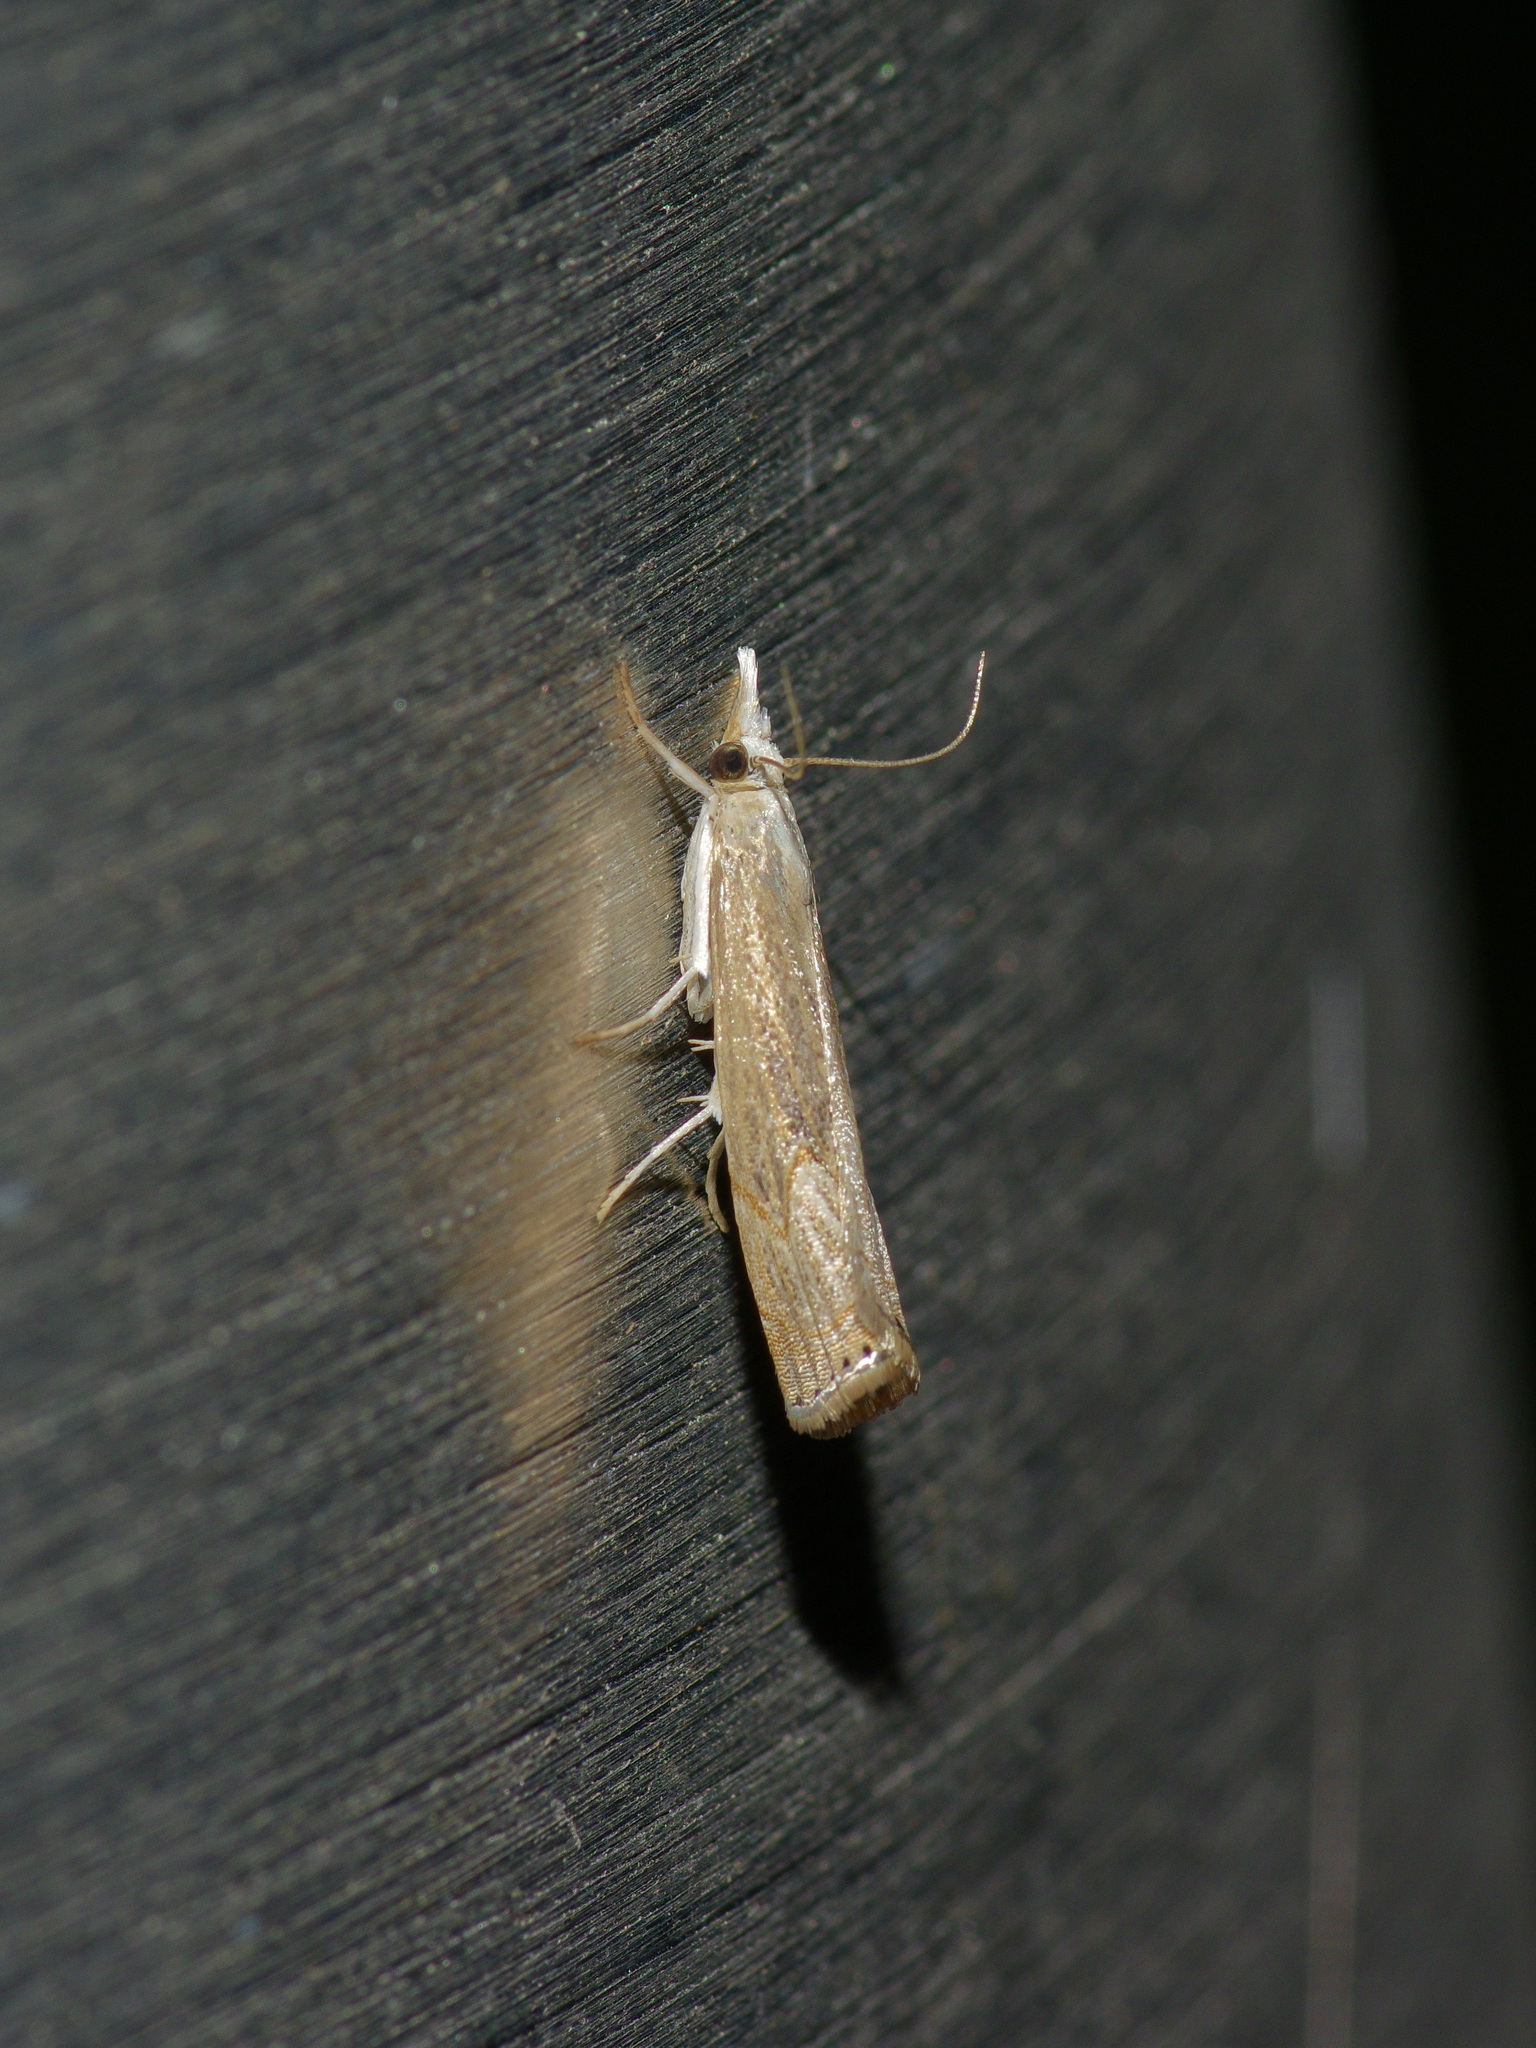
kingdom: Animalia
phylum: Arthropoda
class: Insecta
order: Lepidoptera
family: Crambidae
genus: Parapediasia
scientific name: Parapediasia teterellus
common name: Bluegrass webworm moth
